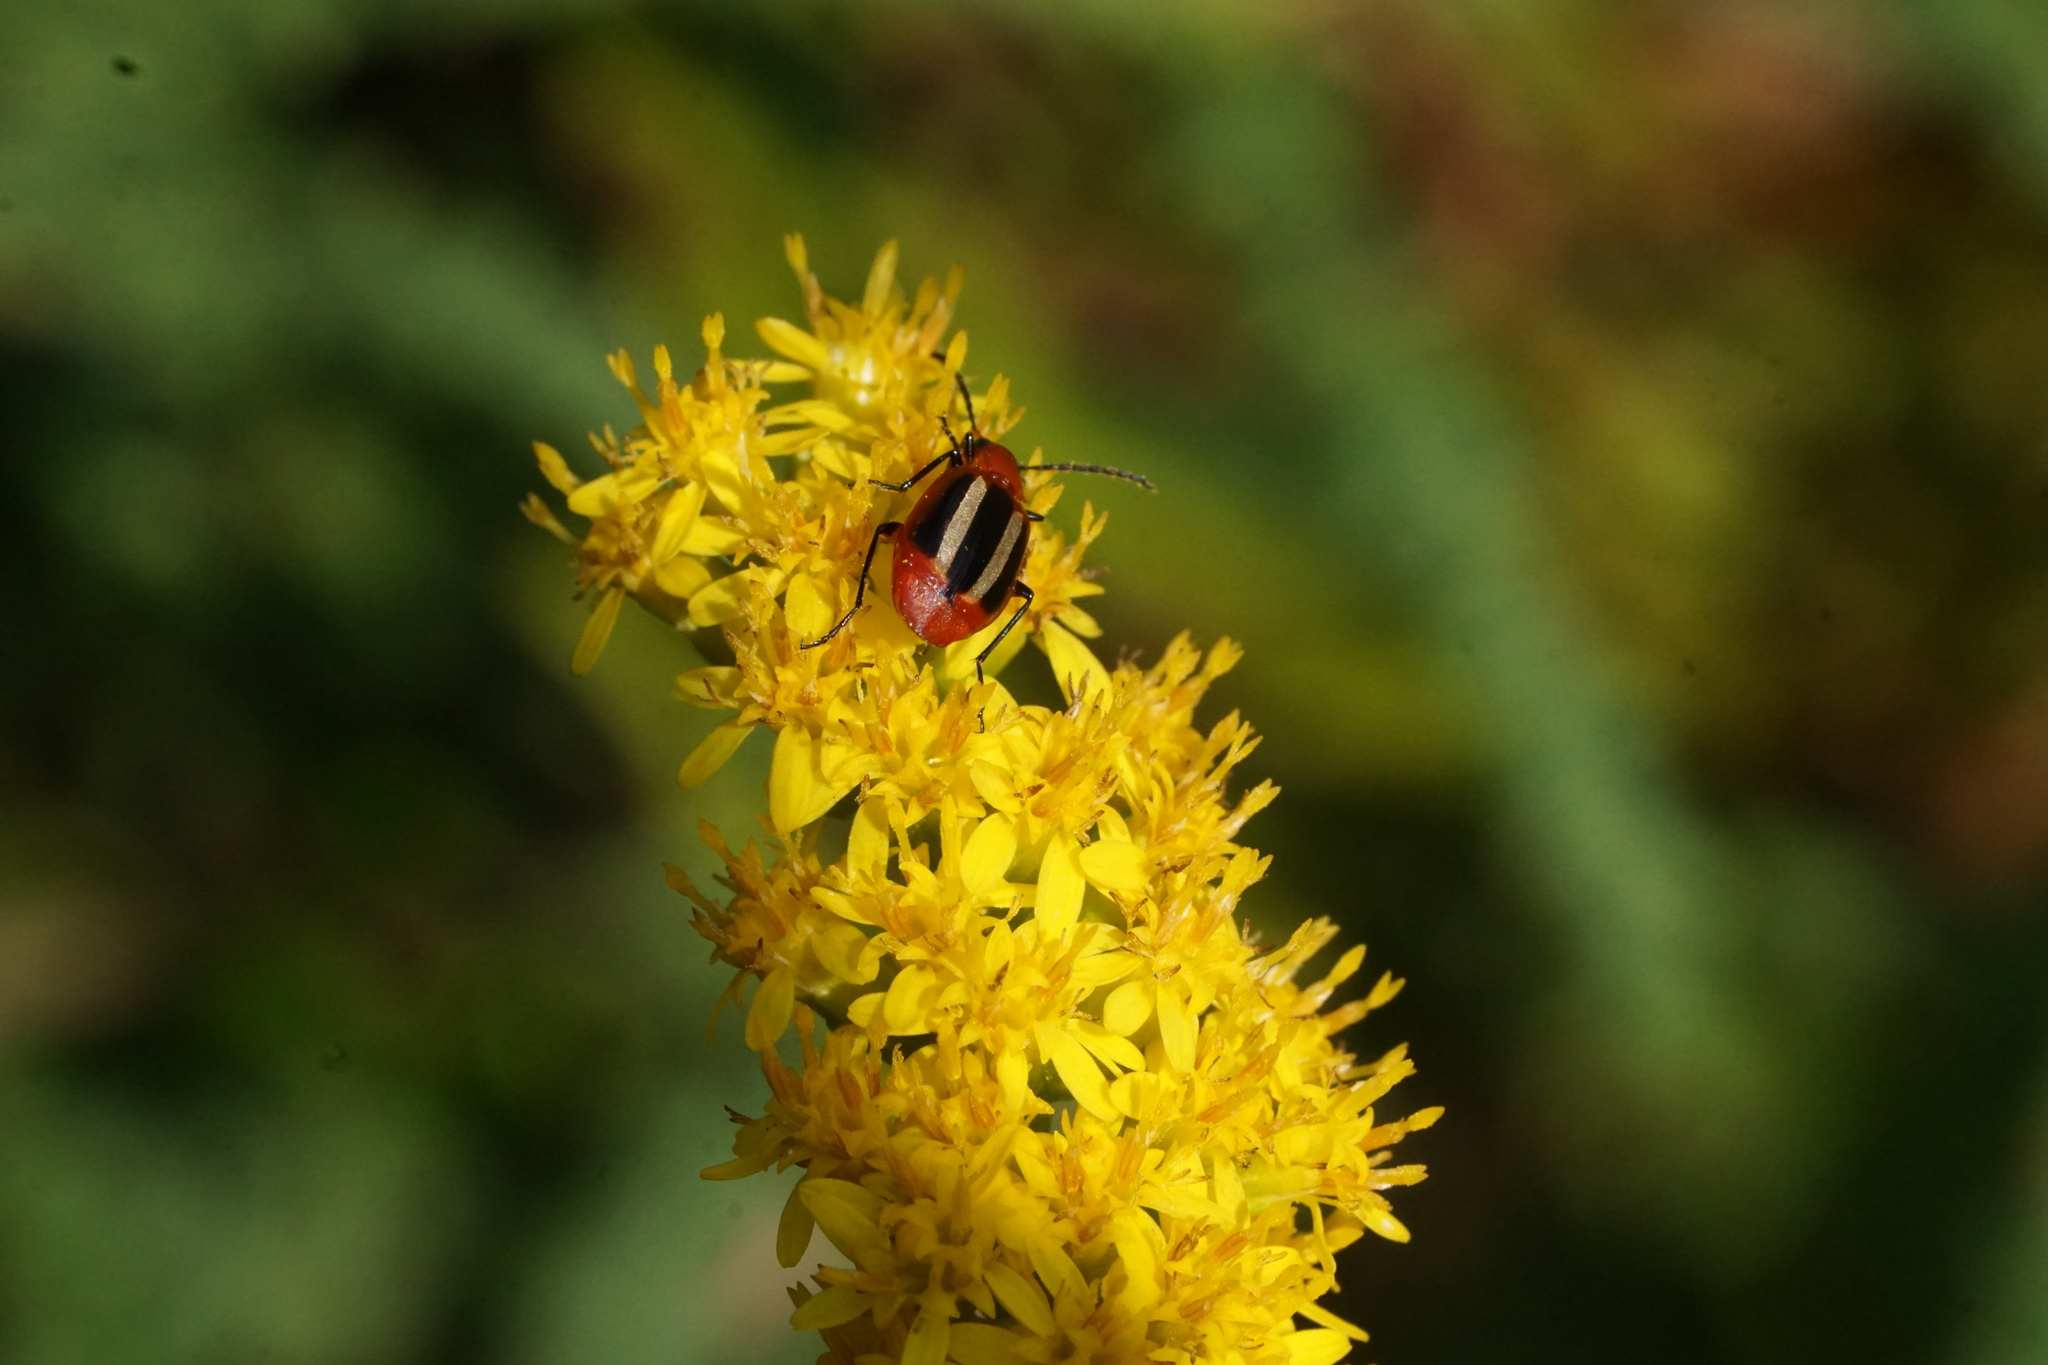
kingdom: Animalia
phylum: Arthropoda
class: Insecta
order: Coleoptera
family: Carabidae
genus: Lebia
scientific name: Lebia pectita
